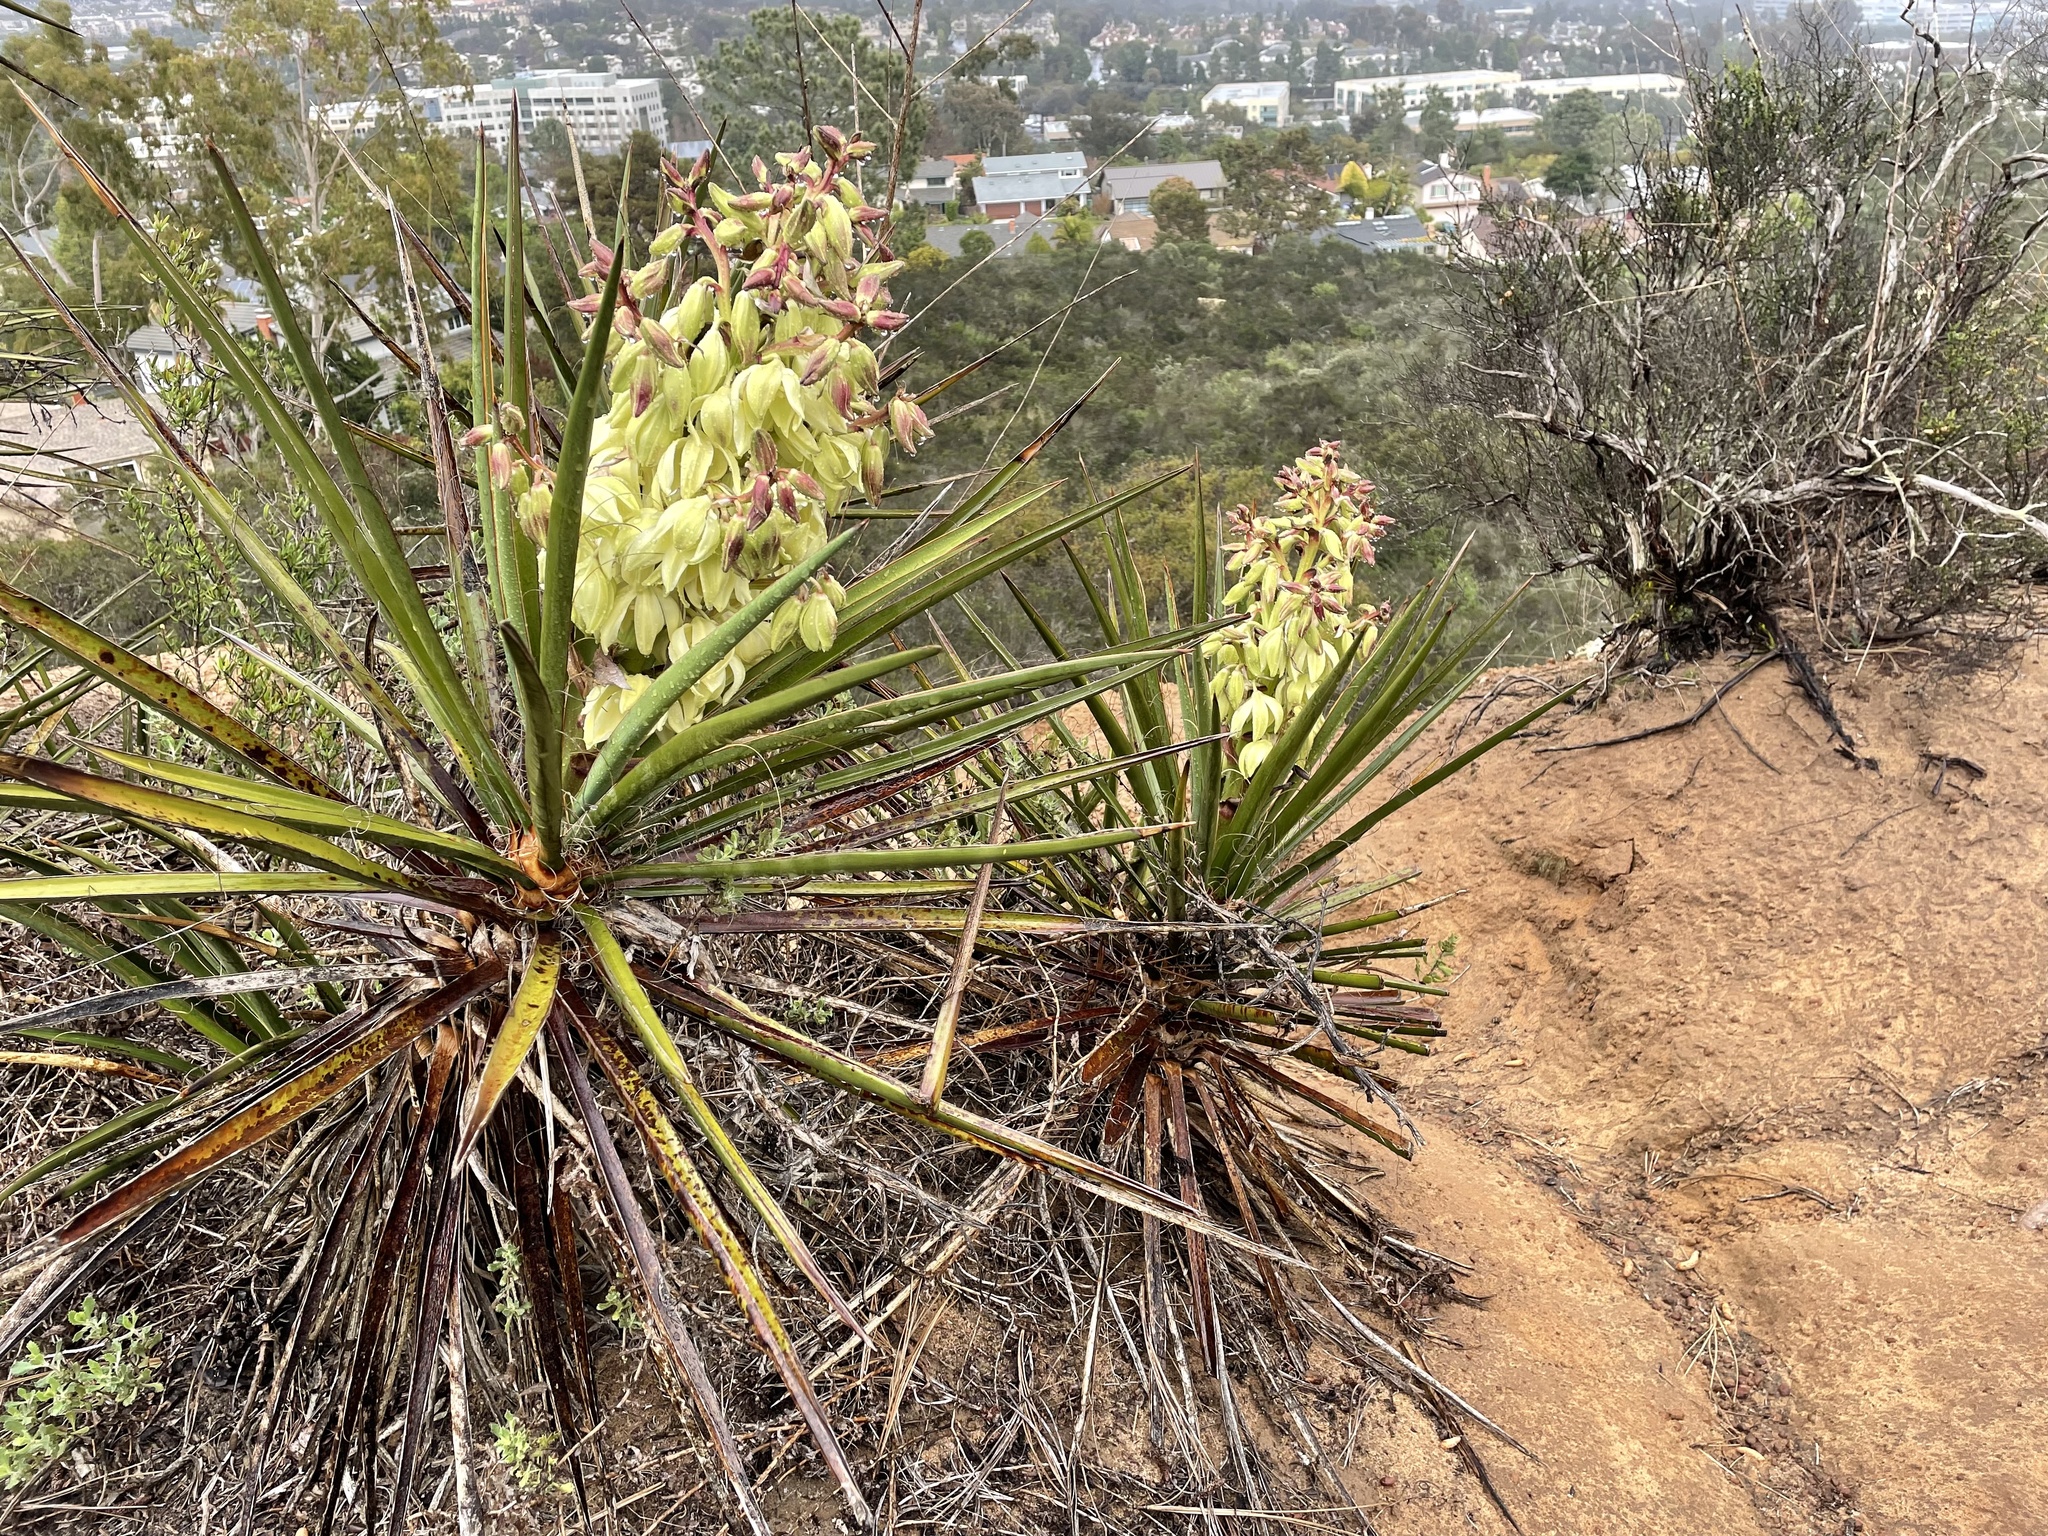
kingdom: Plantae
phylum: Tracheophyta
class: Liliopsida
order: Asparagales
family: Asparagaceae
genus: Yucca
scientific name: Yucca schidigera
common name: Mojave yucca
